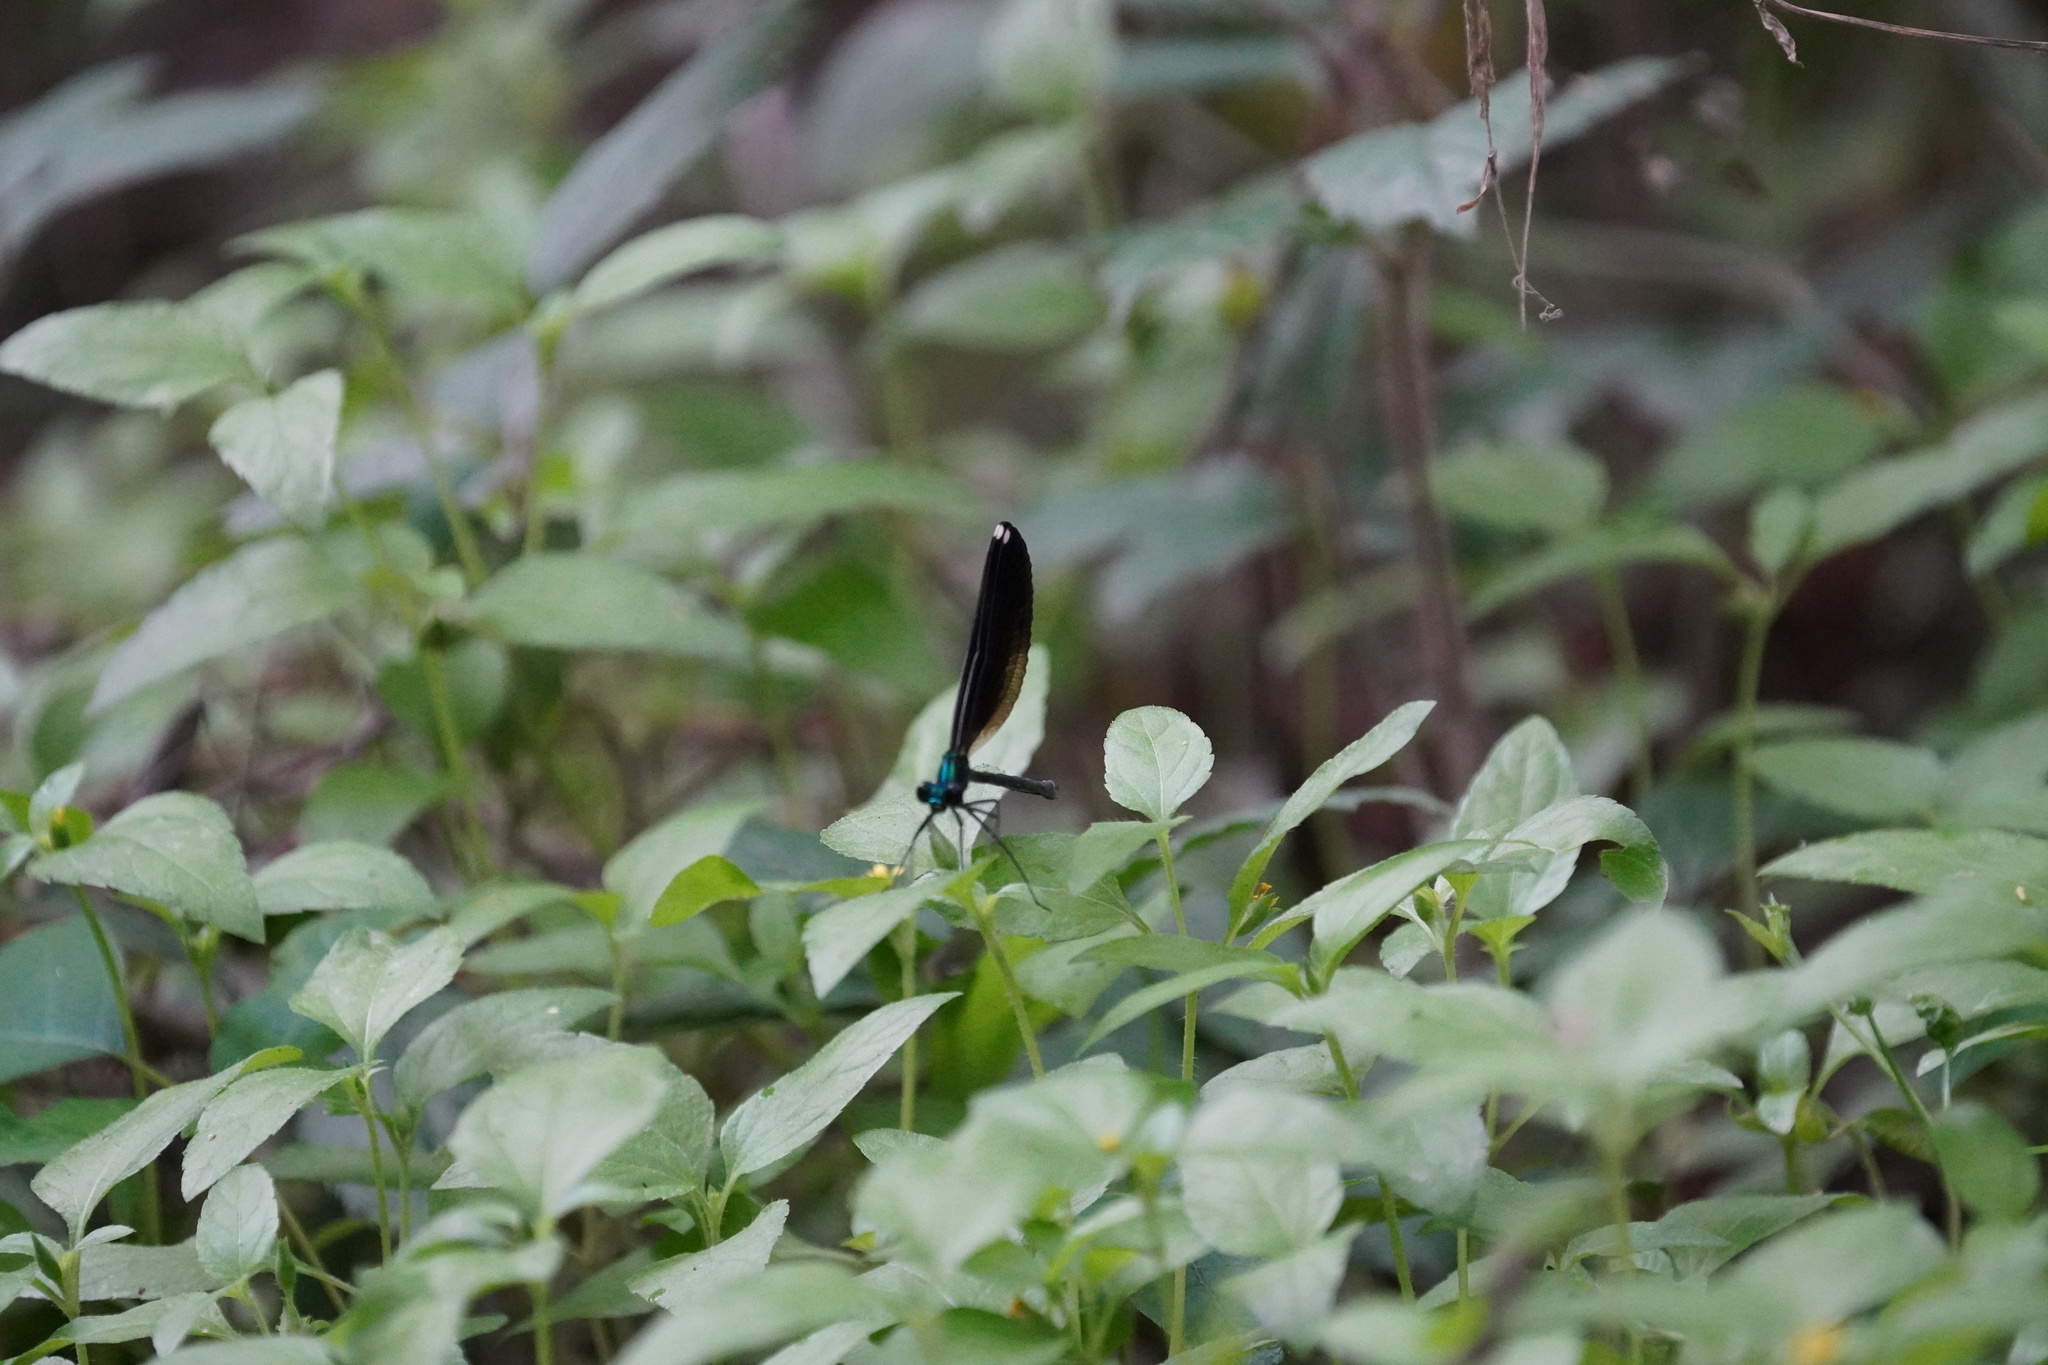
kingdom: Animalia
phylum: Arthropoda
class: Insecta
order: Odonata
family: Calopterygidae
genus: Calopteryx
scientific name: Calopteryx maculata
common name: Ebony jewelwing
